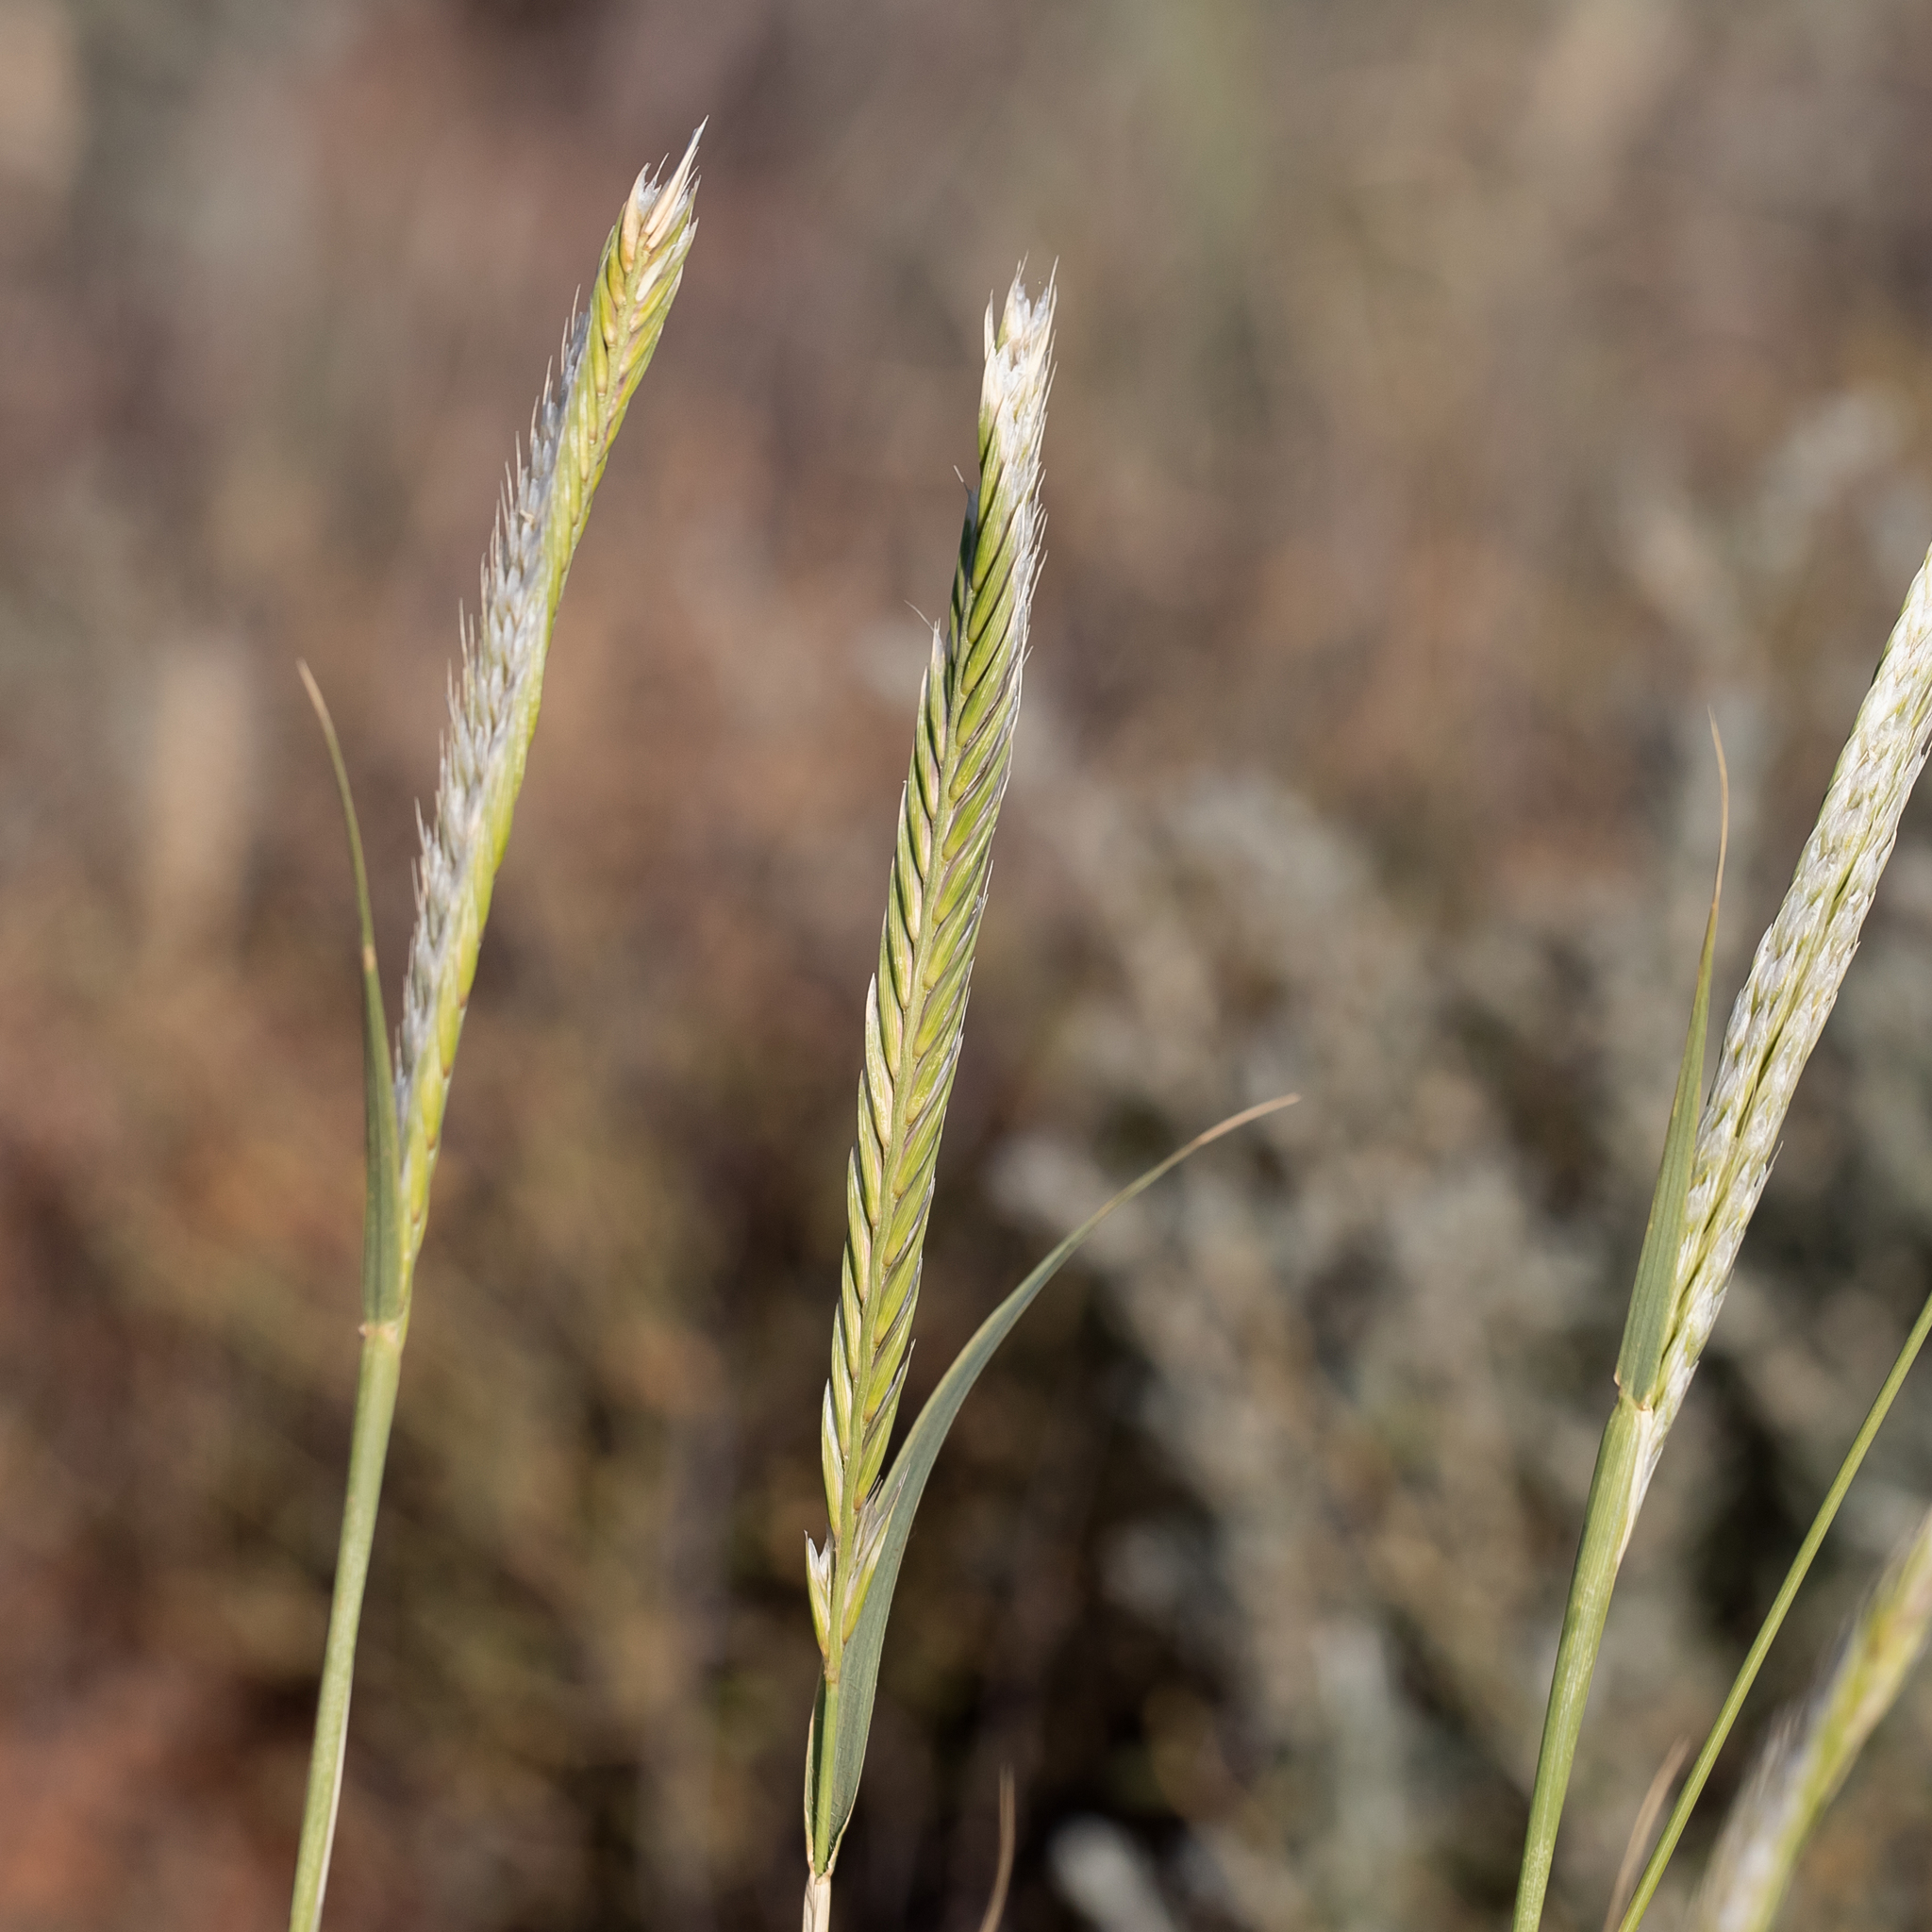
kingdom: Plantae
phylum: Tracheophyta
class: Liliopsida
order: Poales
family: Poaceae
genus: Astrebla
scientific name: Astrebla pectinata
